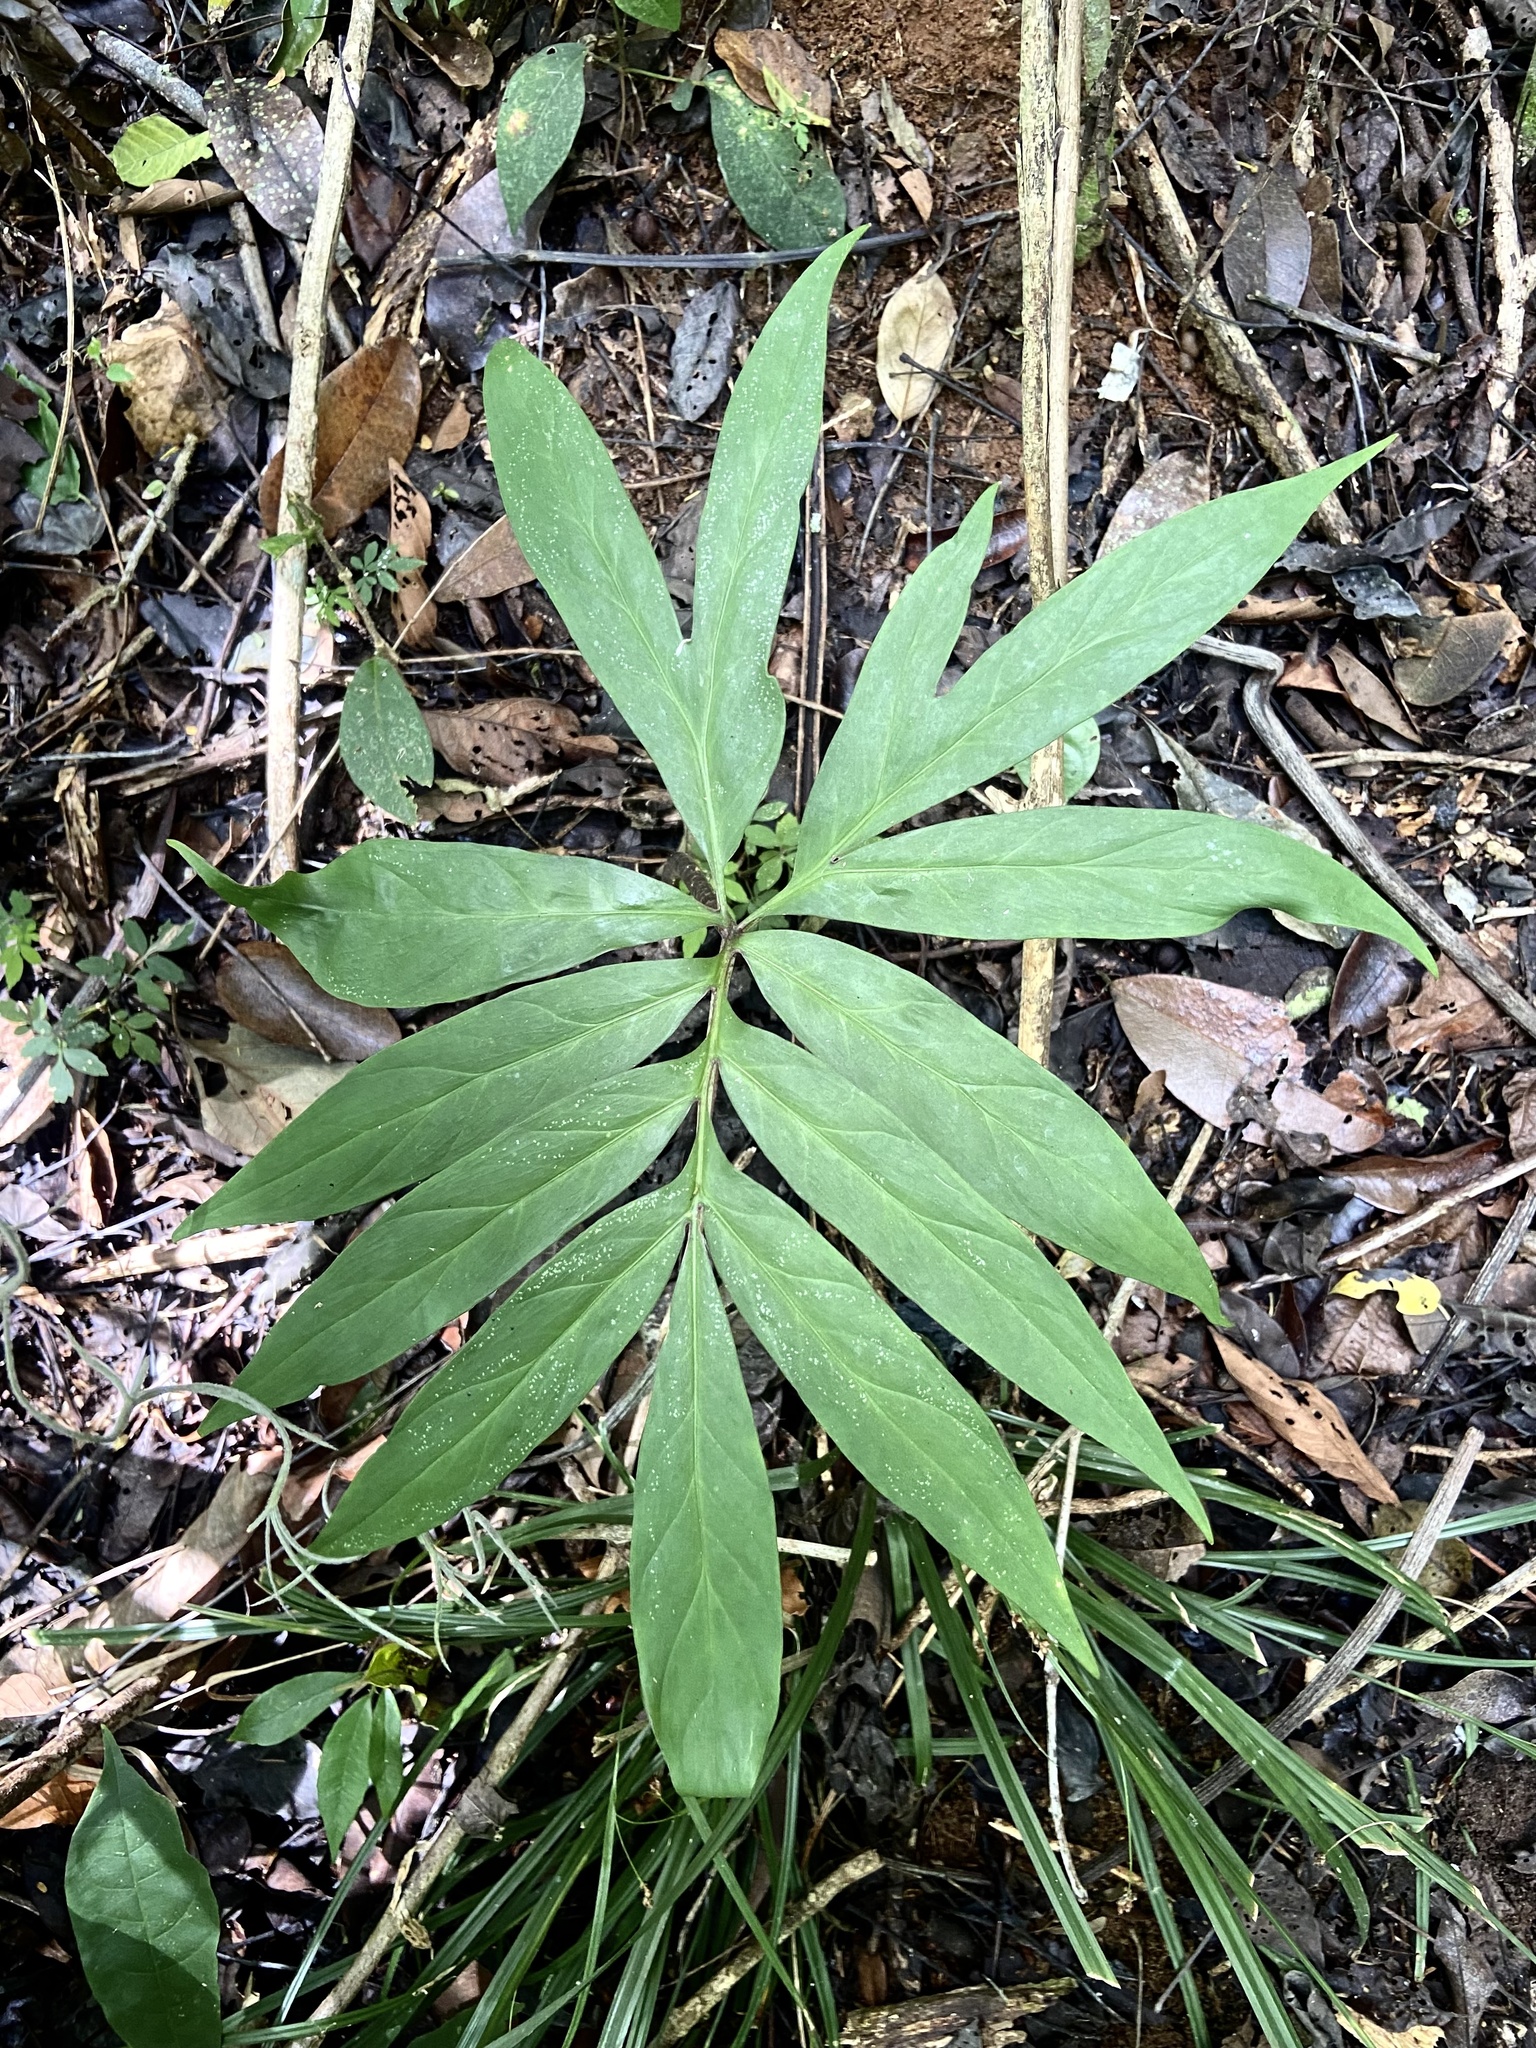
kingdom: Plantae
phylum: Tracheophyta
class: Liliopsida
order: Alismatales
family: Araceae
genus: Asterostigma
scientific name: Asterostigma lombardii
